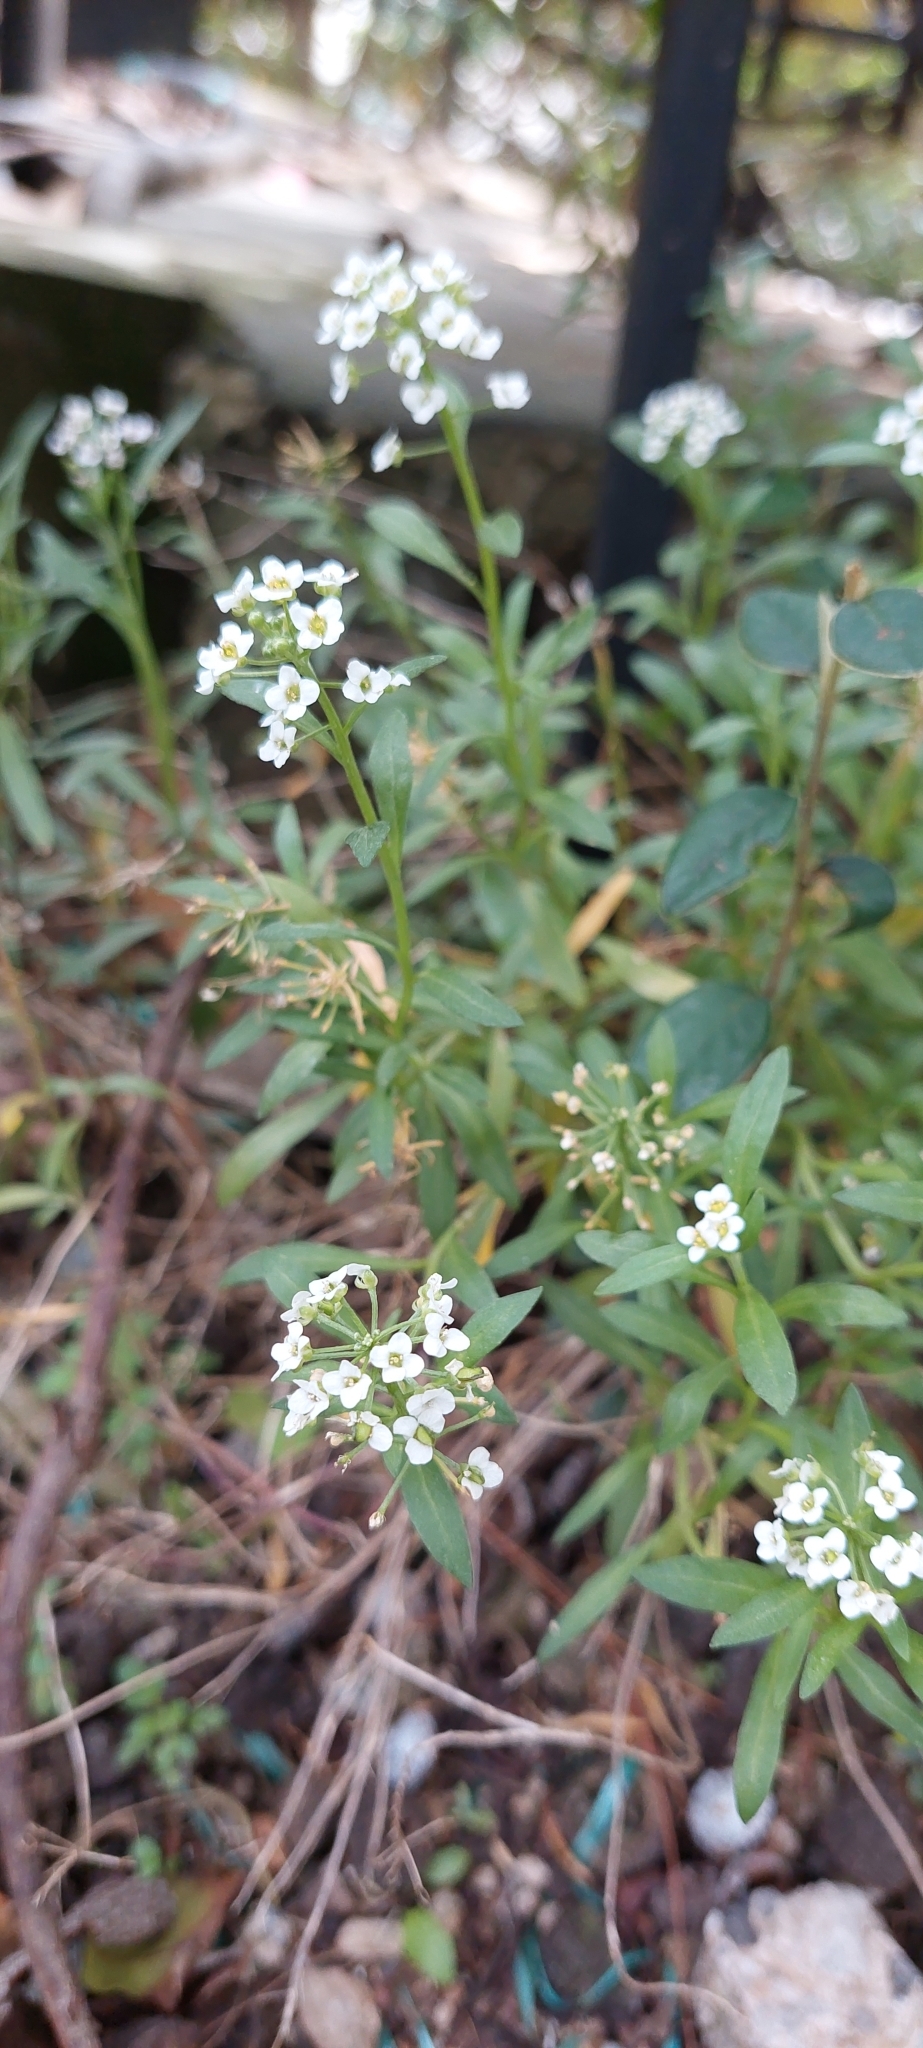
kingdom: Plantae
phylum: Tracheophyta
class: Magnoliopsida
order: Brassicales
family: Brassicaceae
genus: Lobularia
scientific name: Lobularia maritima
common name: Sweet alison
